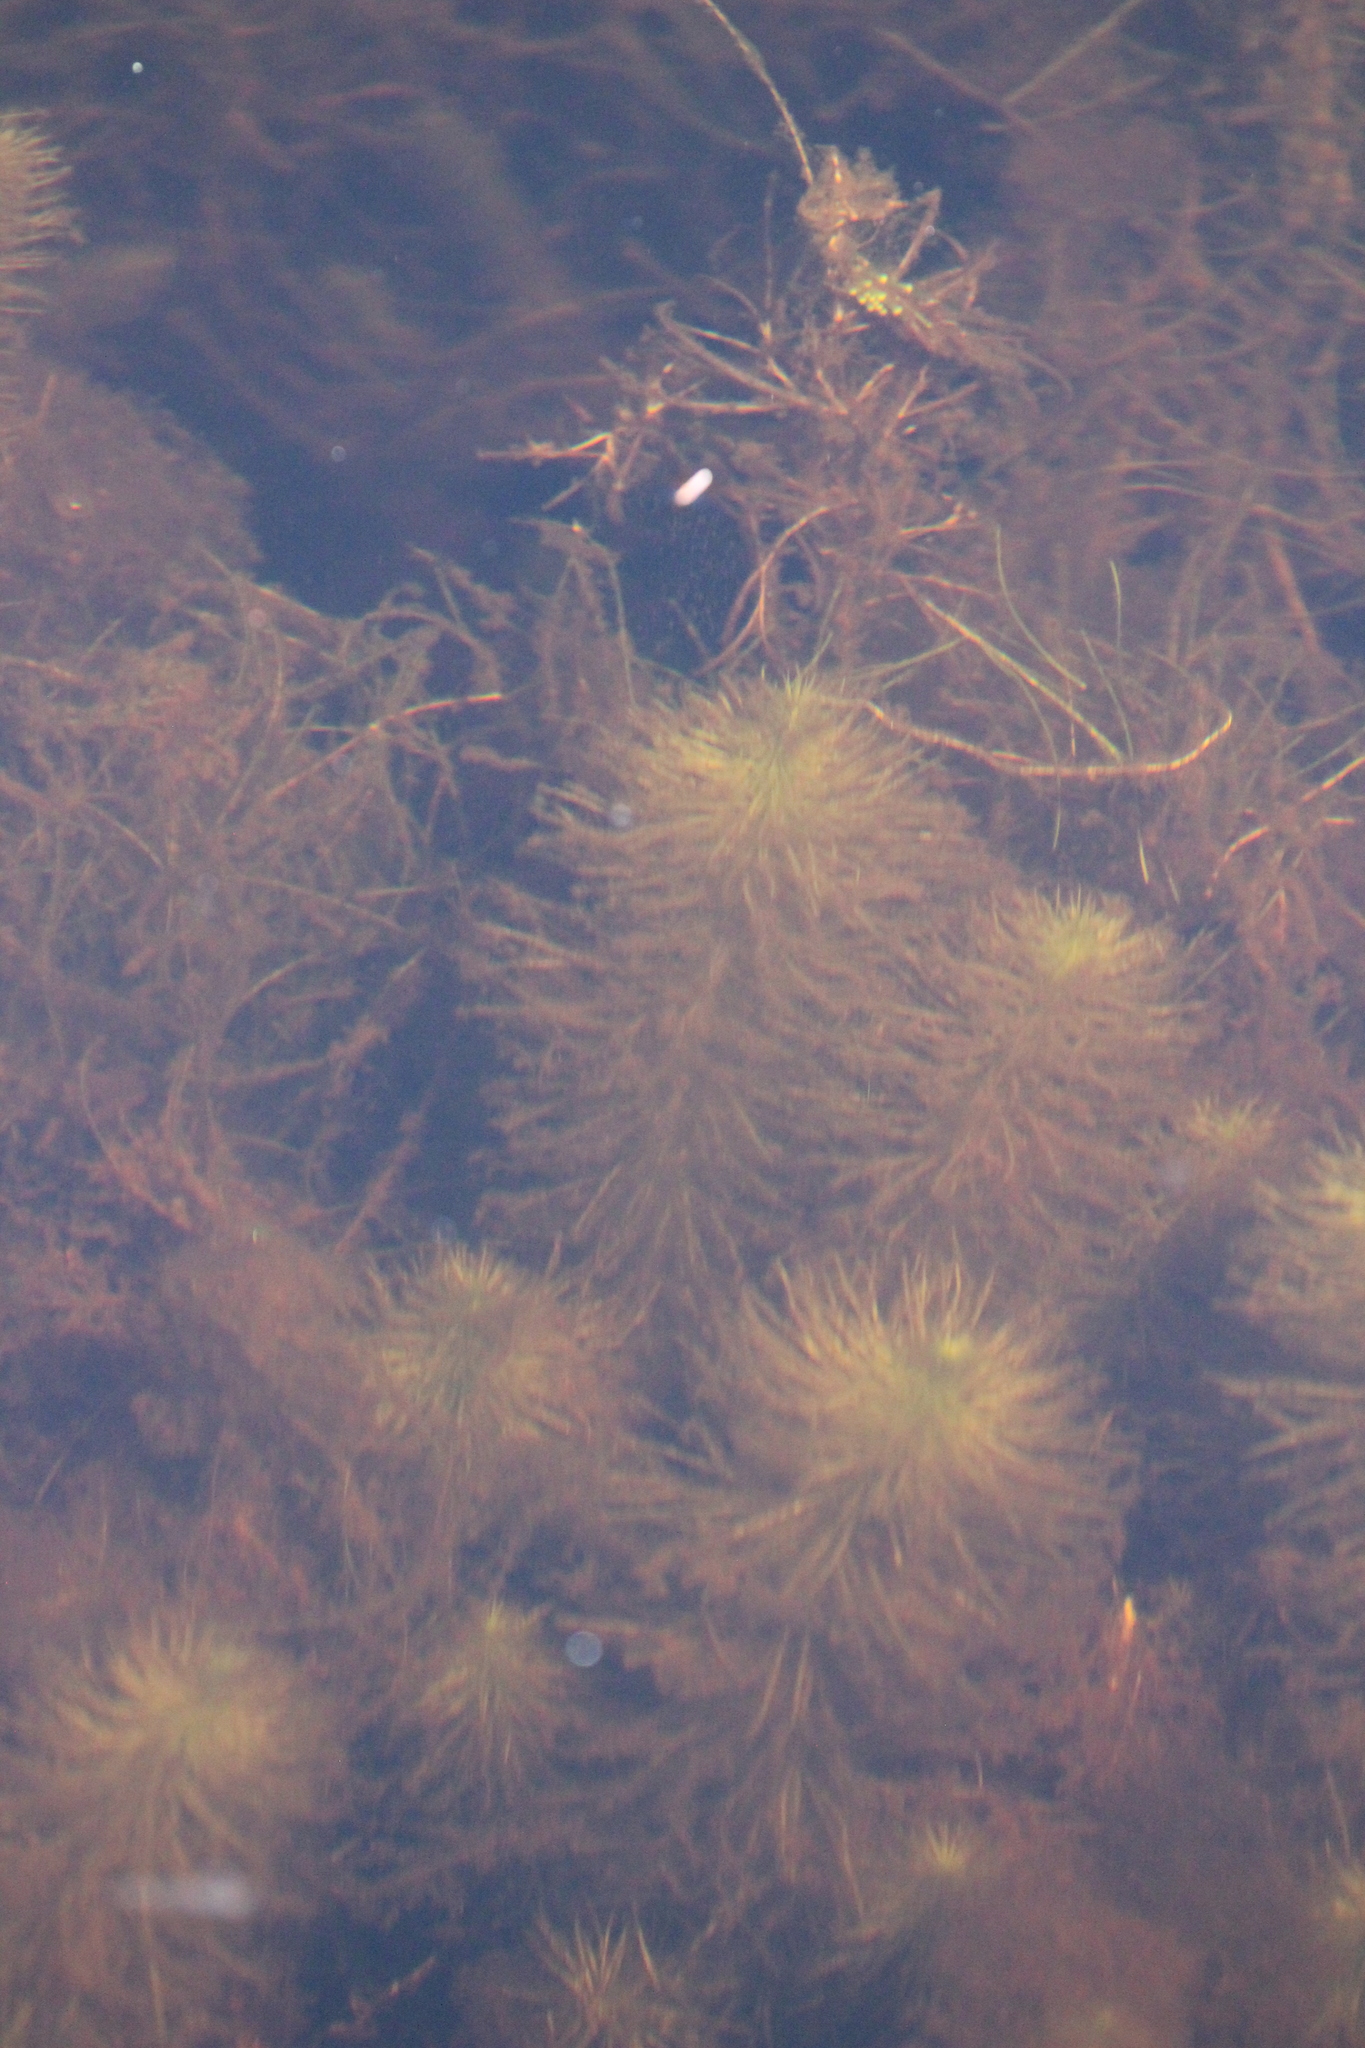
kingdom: Plantae
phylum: Tracheophyta
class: Magnoliopsida
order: Lamiales
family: Plantaginaceae
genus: Hippuris
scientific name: Hippuris vulgaris
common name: Mare's-tail
